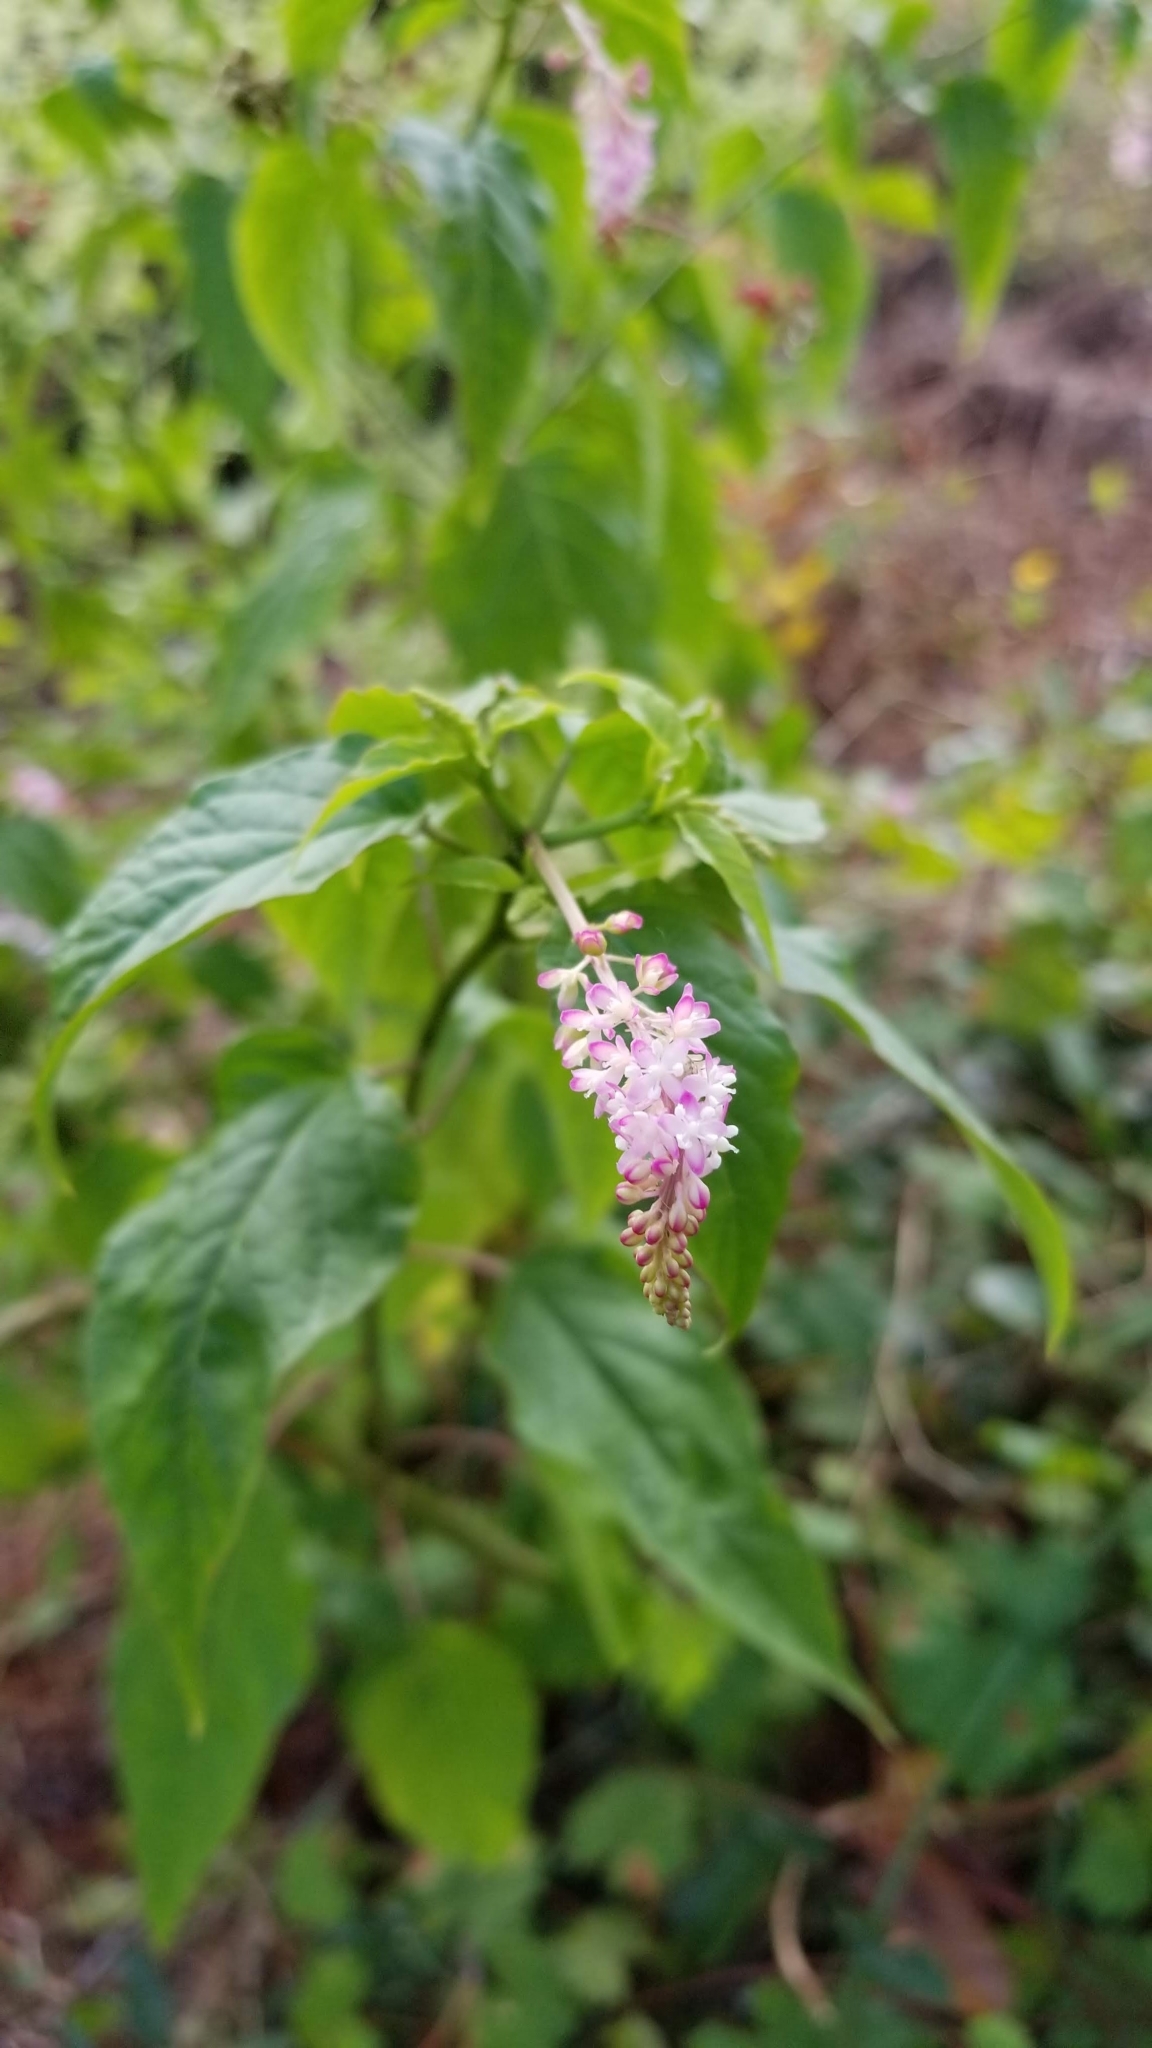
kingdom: Plantae
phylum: Tracheophyta
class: Magnoliopsida
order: Caryophyllales
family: Phytolaccaceae
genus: Rivina
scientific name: Rivina humilis
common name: Rougeplant
